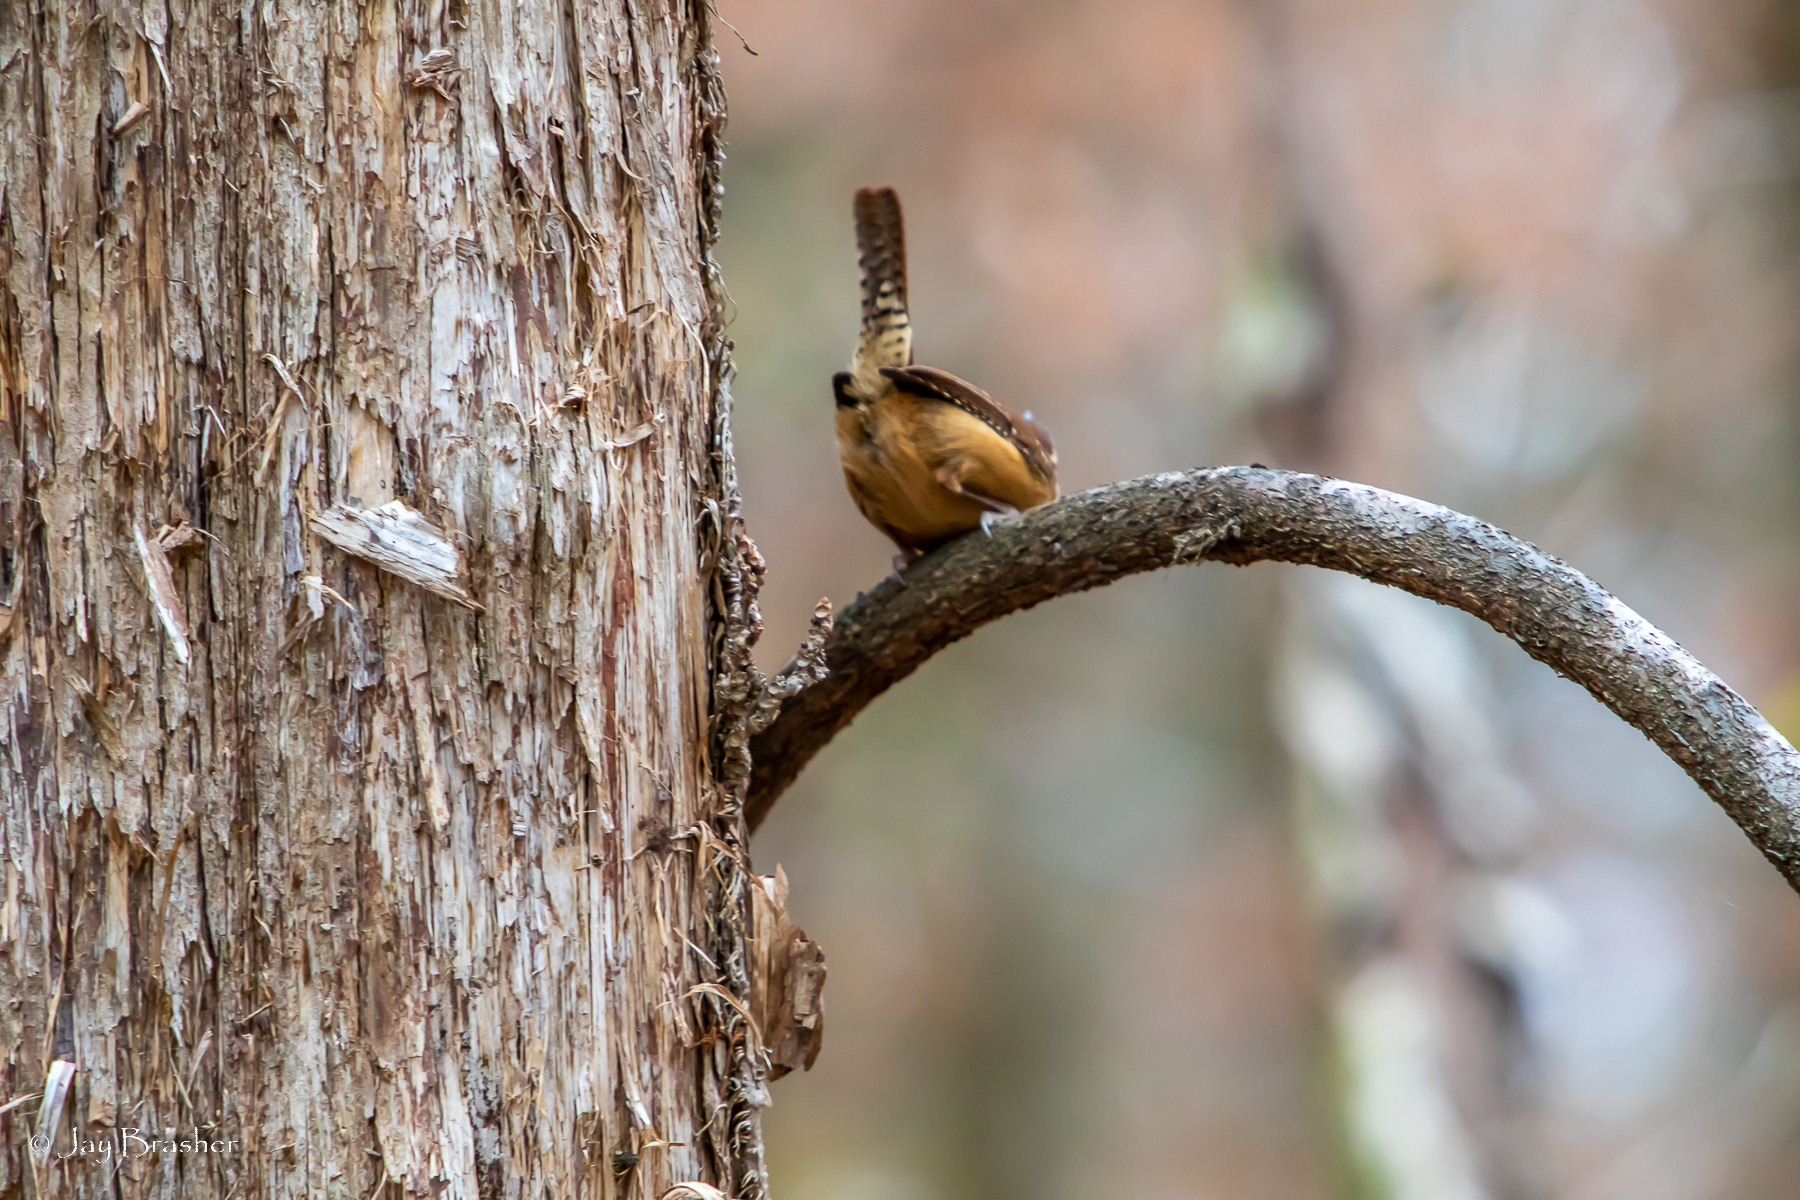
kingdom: Animalia
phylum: Chordata
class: Aves
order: Passeriformes
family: Troglodytidae
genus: Thryothorus
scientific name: Thryothorus ludovicianus
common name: Carolina wren
